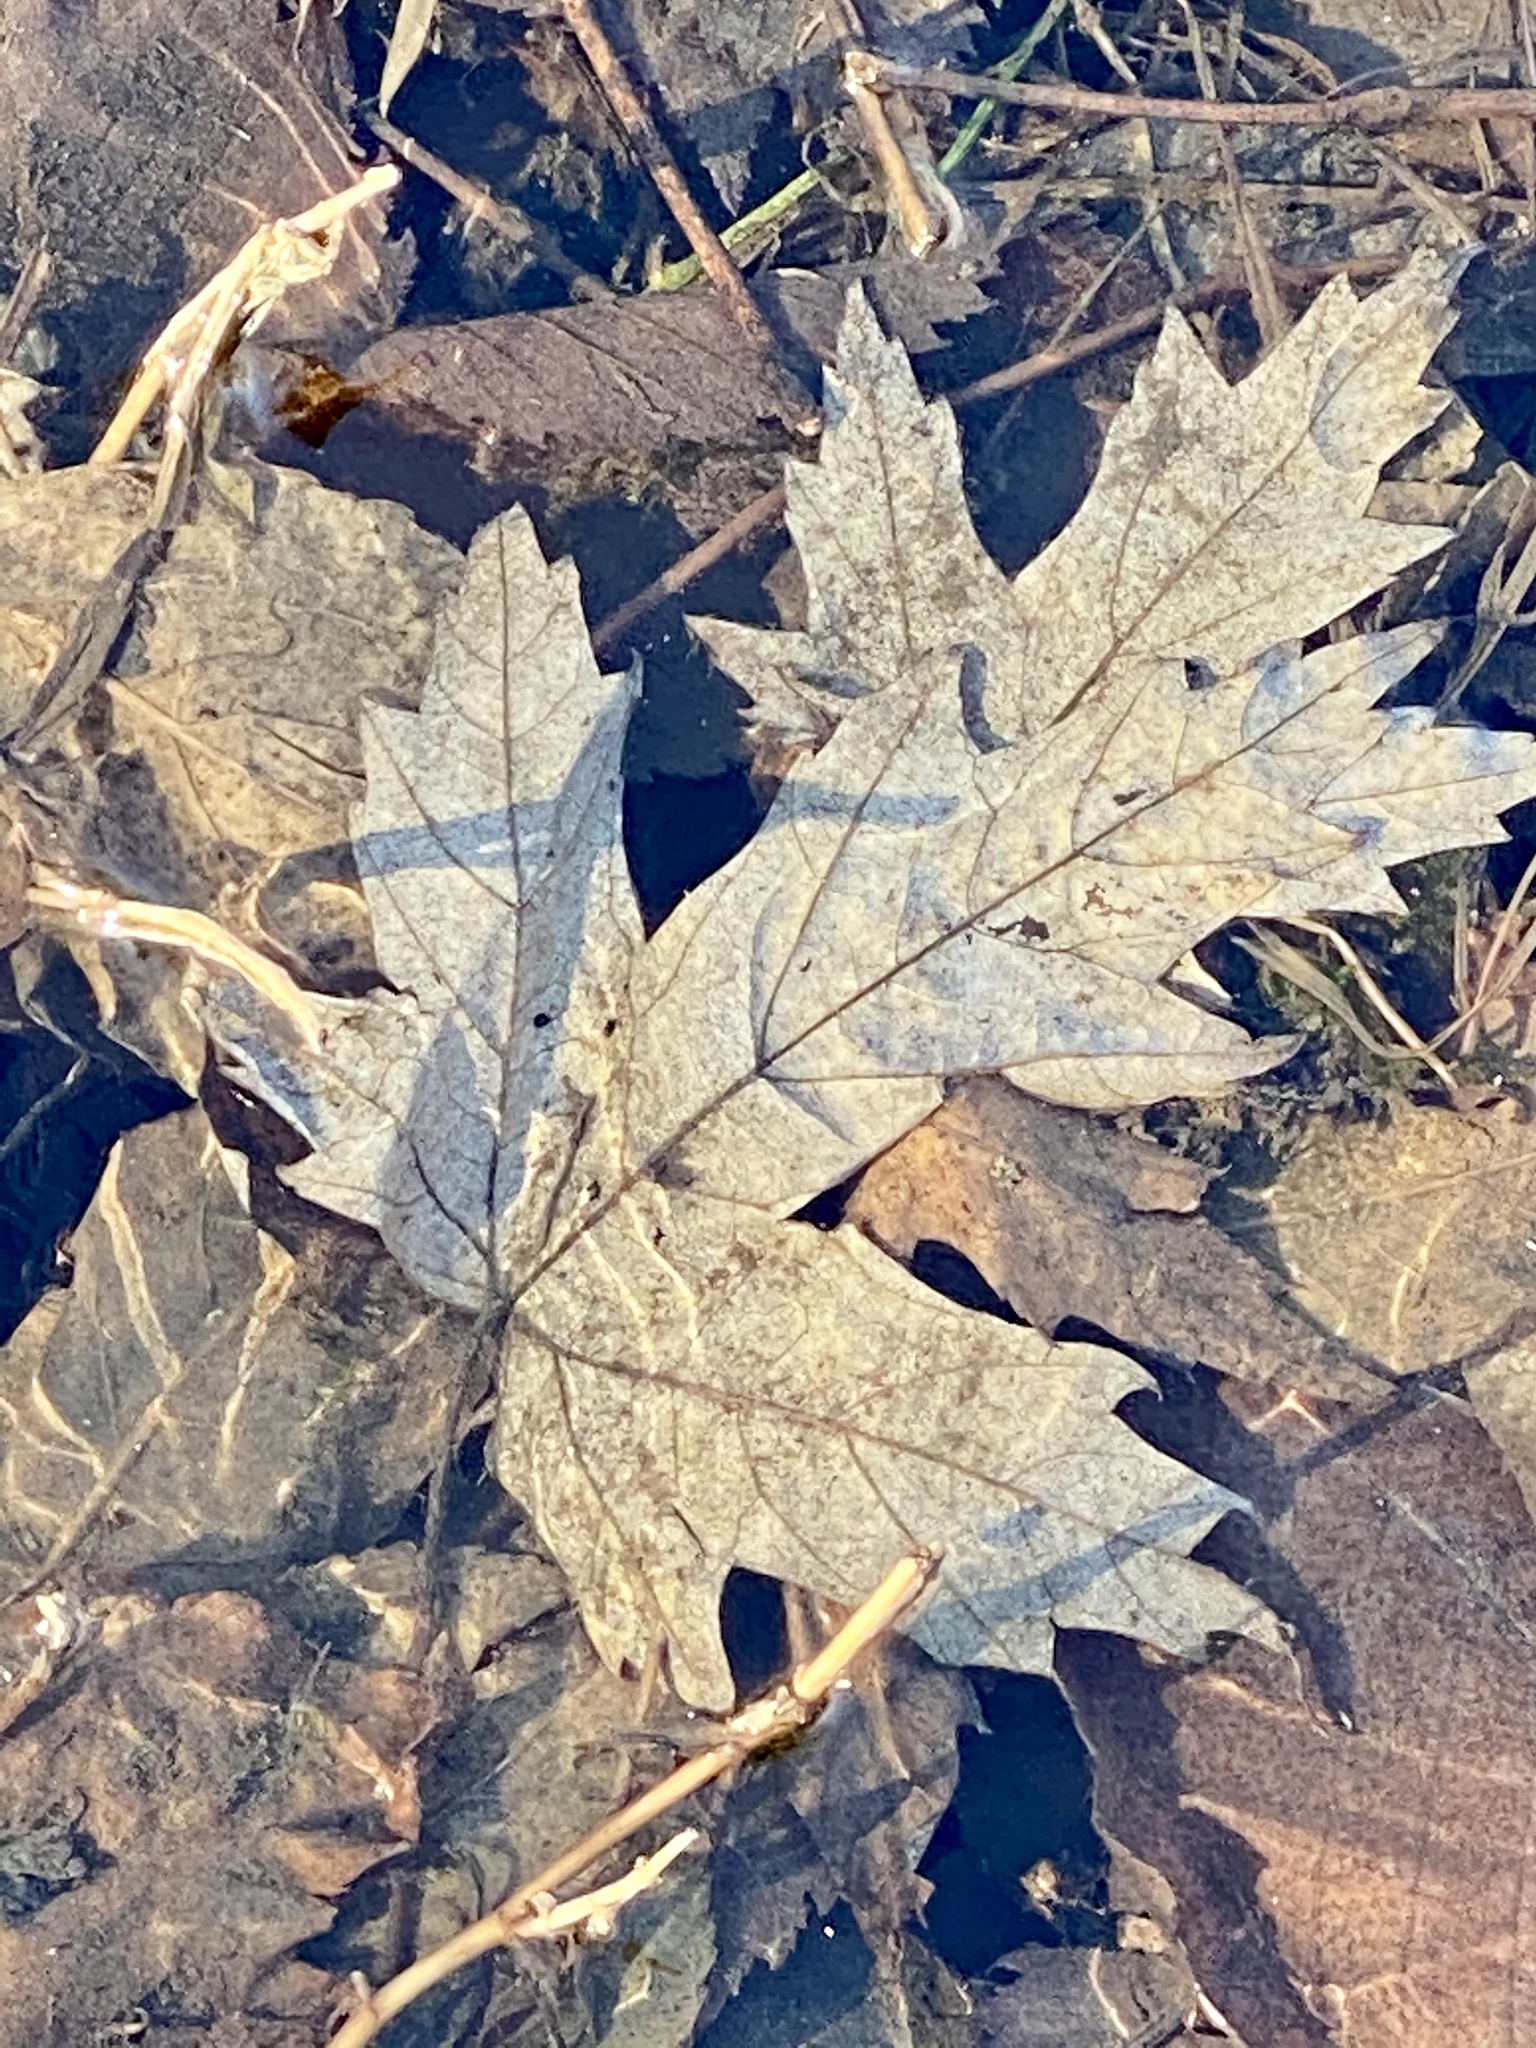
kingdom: Plantae
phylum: Tracheophyta
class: Magnoliopsida
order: Sapindales
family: Sapindaceae
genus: Acer
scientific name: Acer saccharinum
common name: Silver maple
